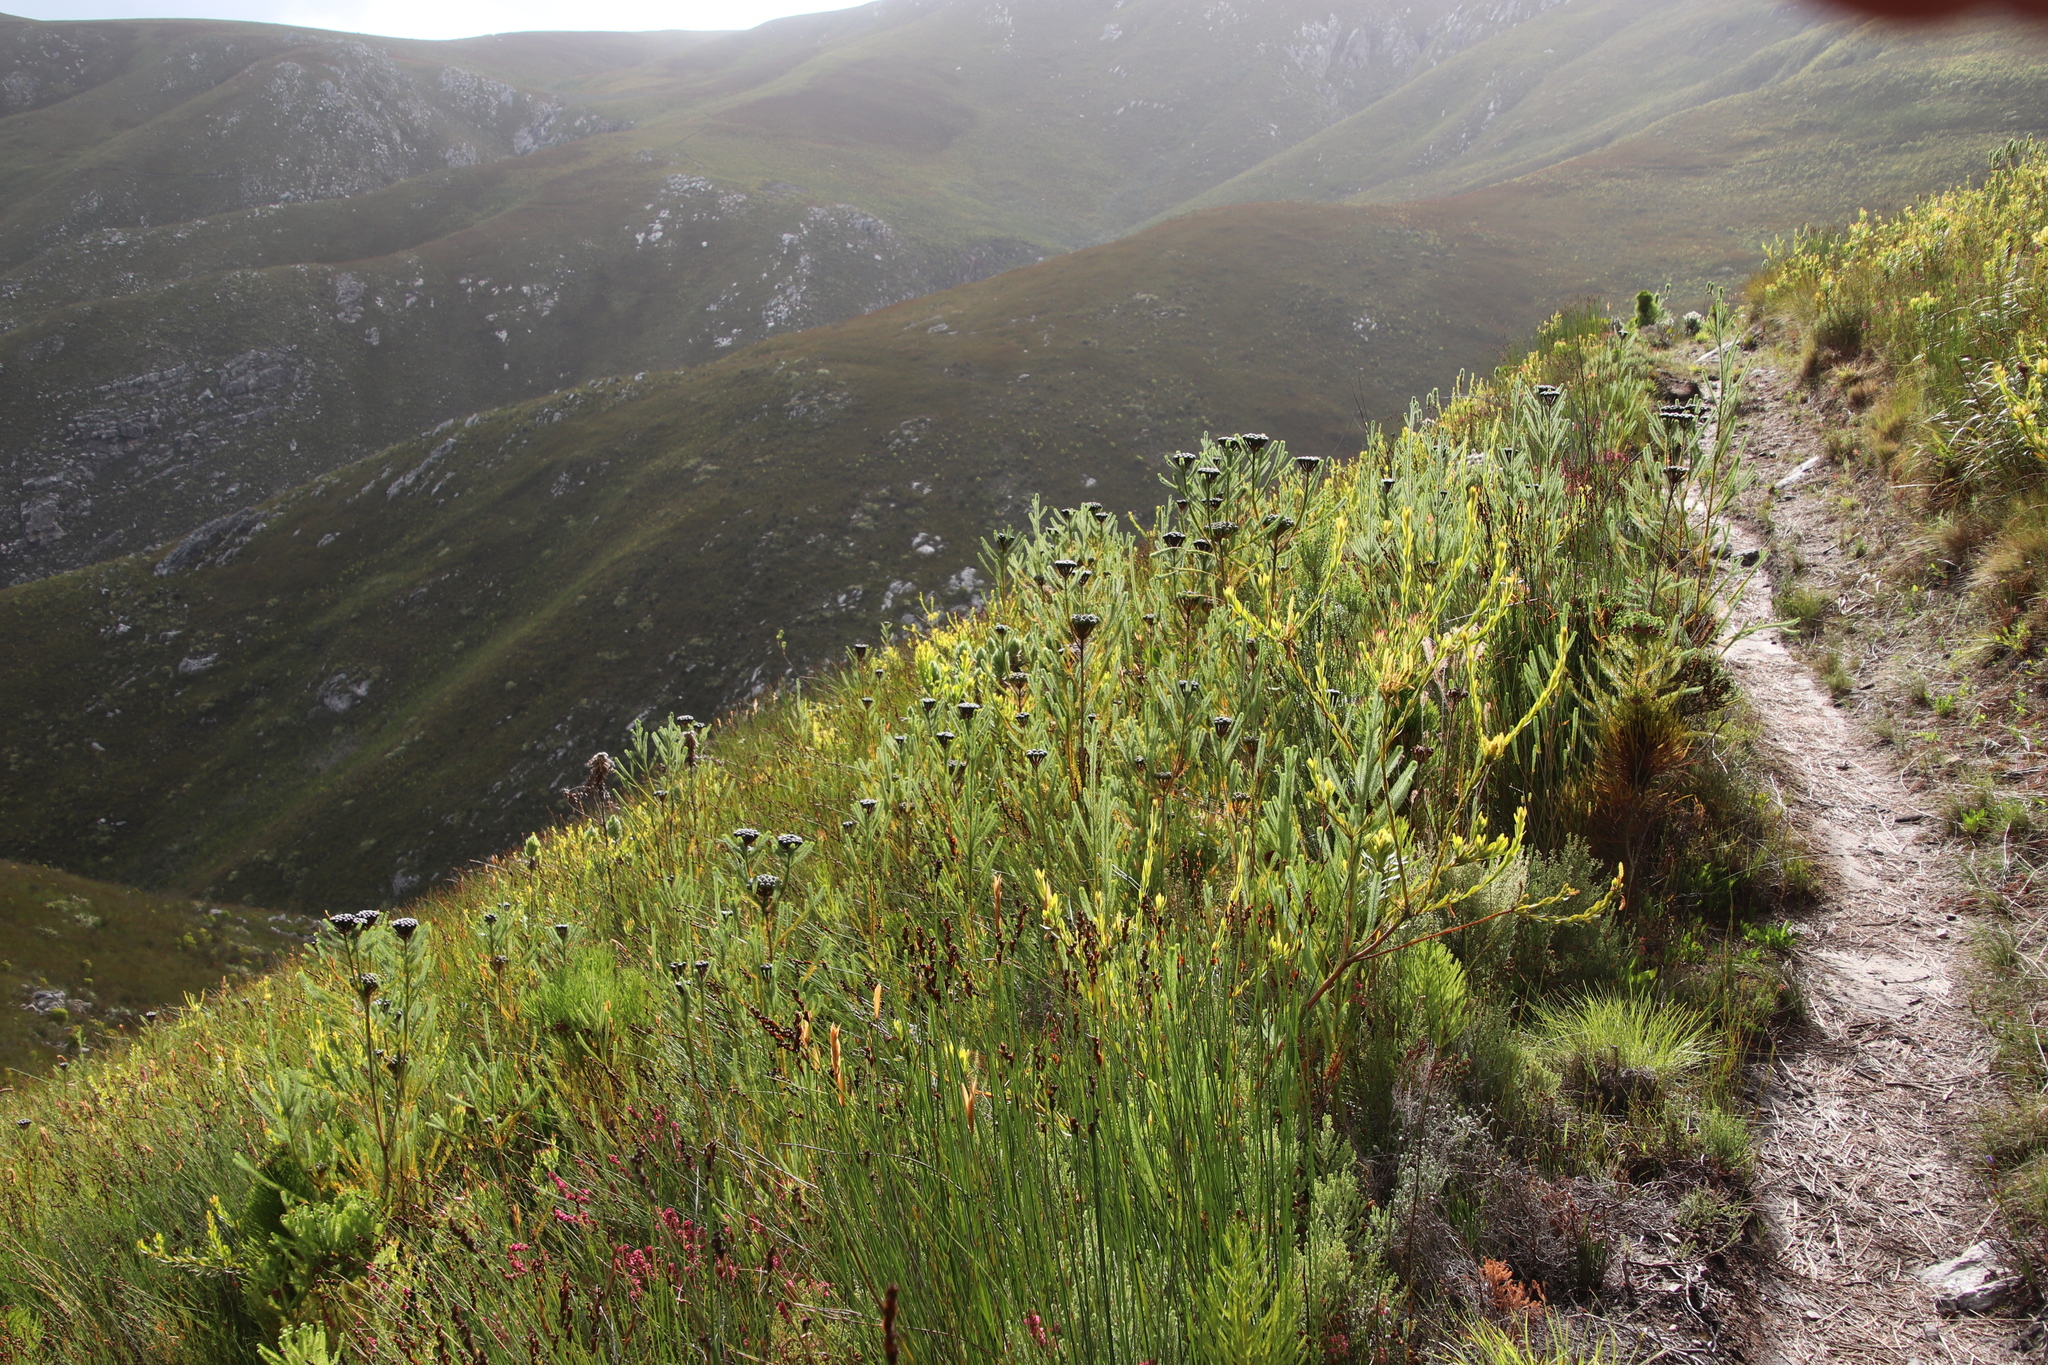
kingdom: Plantae
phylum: Tracheophyta
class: Magnoliopsida
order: Bruniales
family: Bruniaceae
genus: Berzelia
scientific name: Berzelia albiflora
